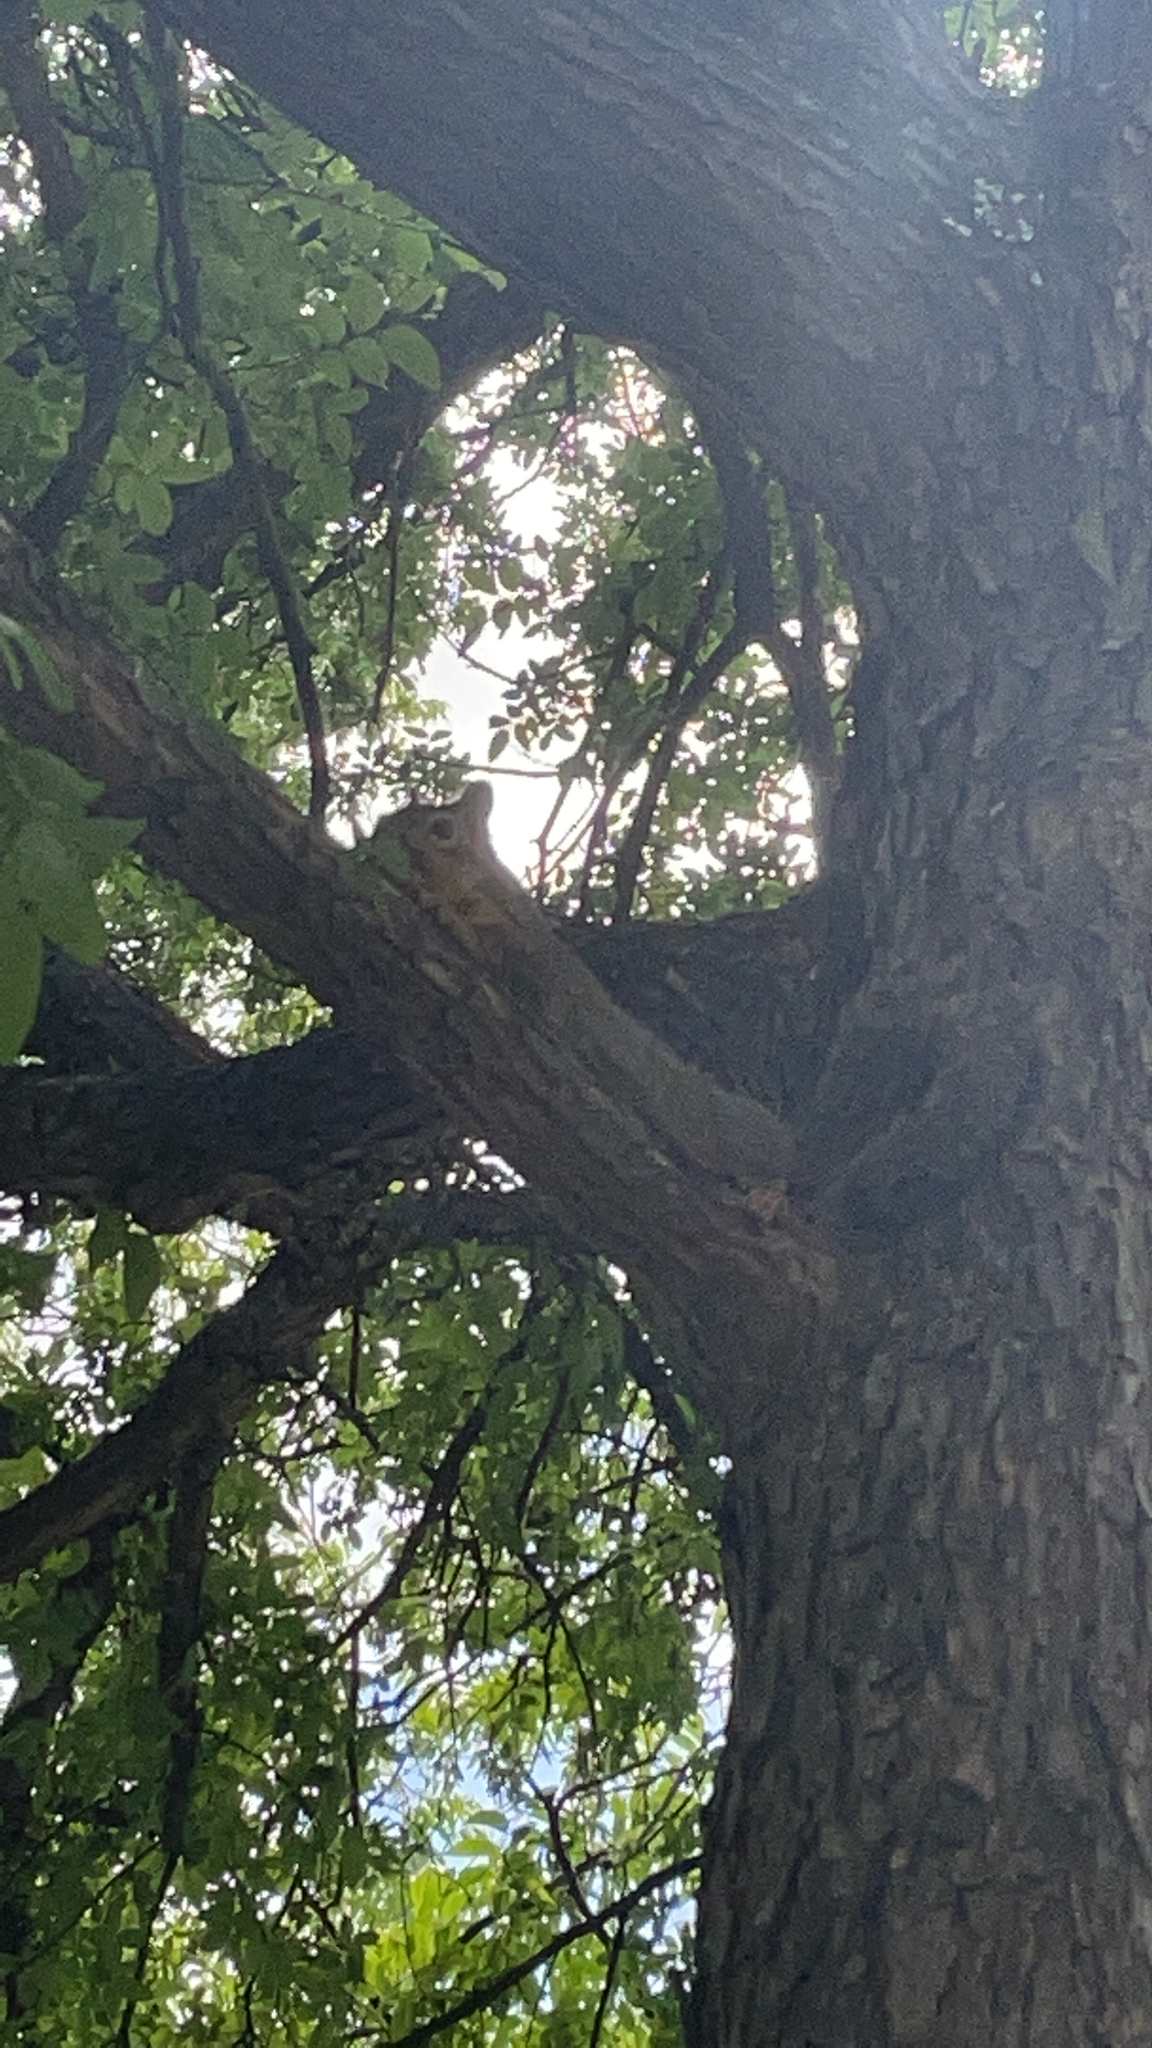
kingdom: Animalia
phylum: Chordata
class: Mammalia
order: Rodentia
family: Sciuridae
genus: Sciurus
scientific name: Sciurus niger
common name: Fox squirrel
